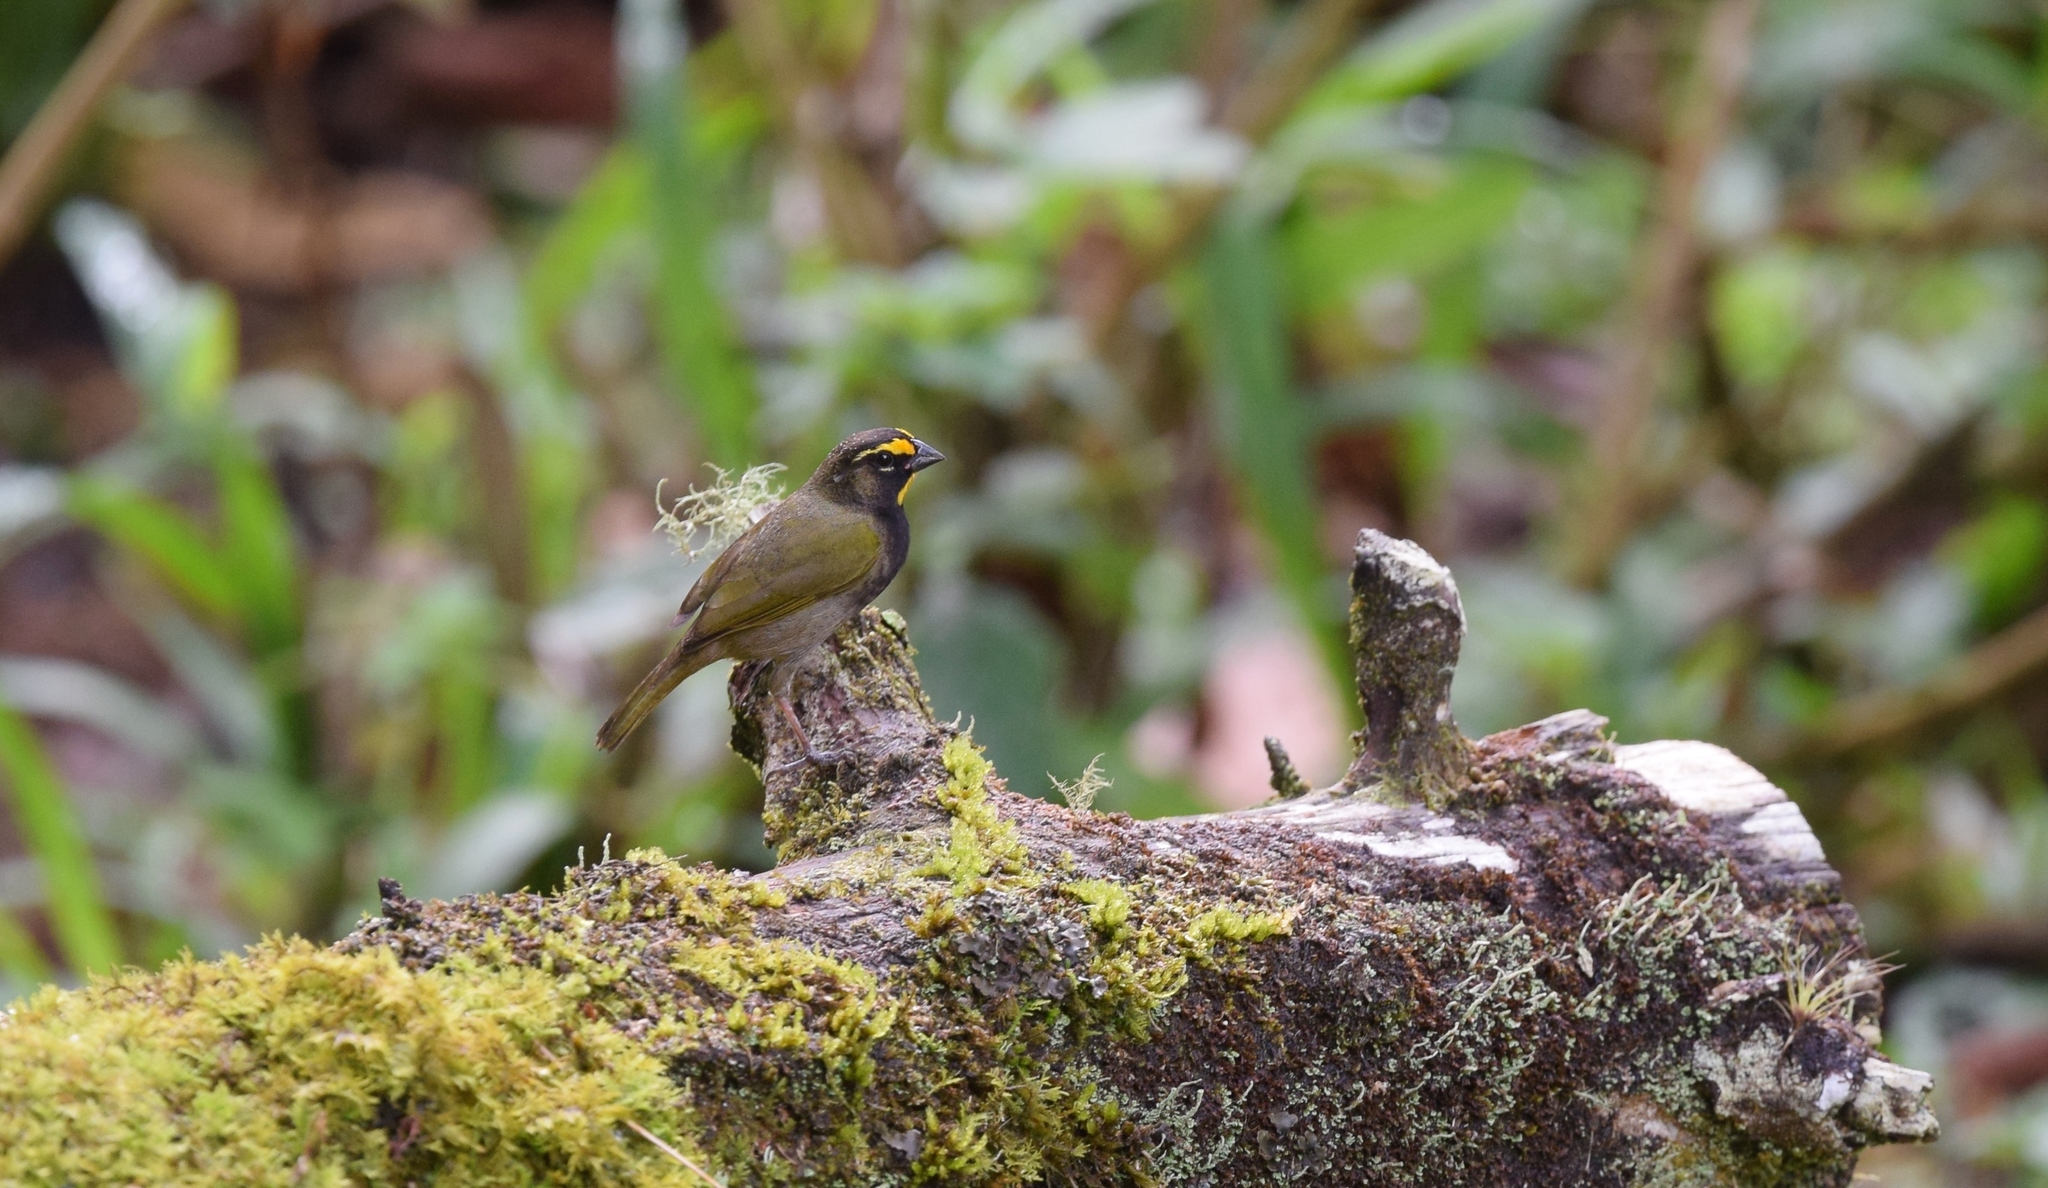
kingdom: Animalia
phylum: Chordata
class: Aves
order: Passeriformes
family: Thraupidae
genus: Tiaris
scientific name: Tiaris olivaceus
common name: Yellow-faced grassquit
